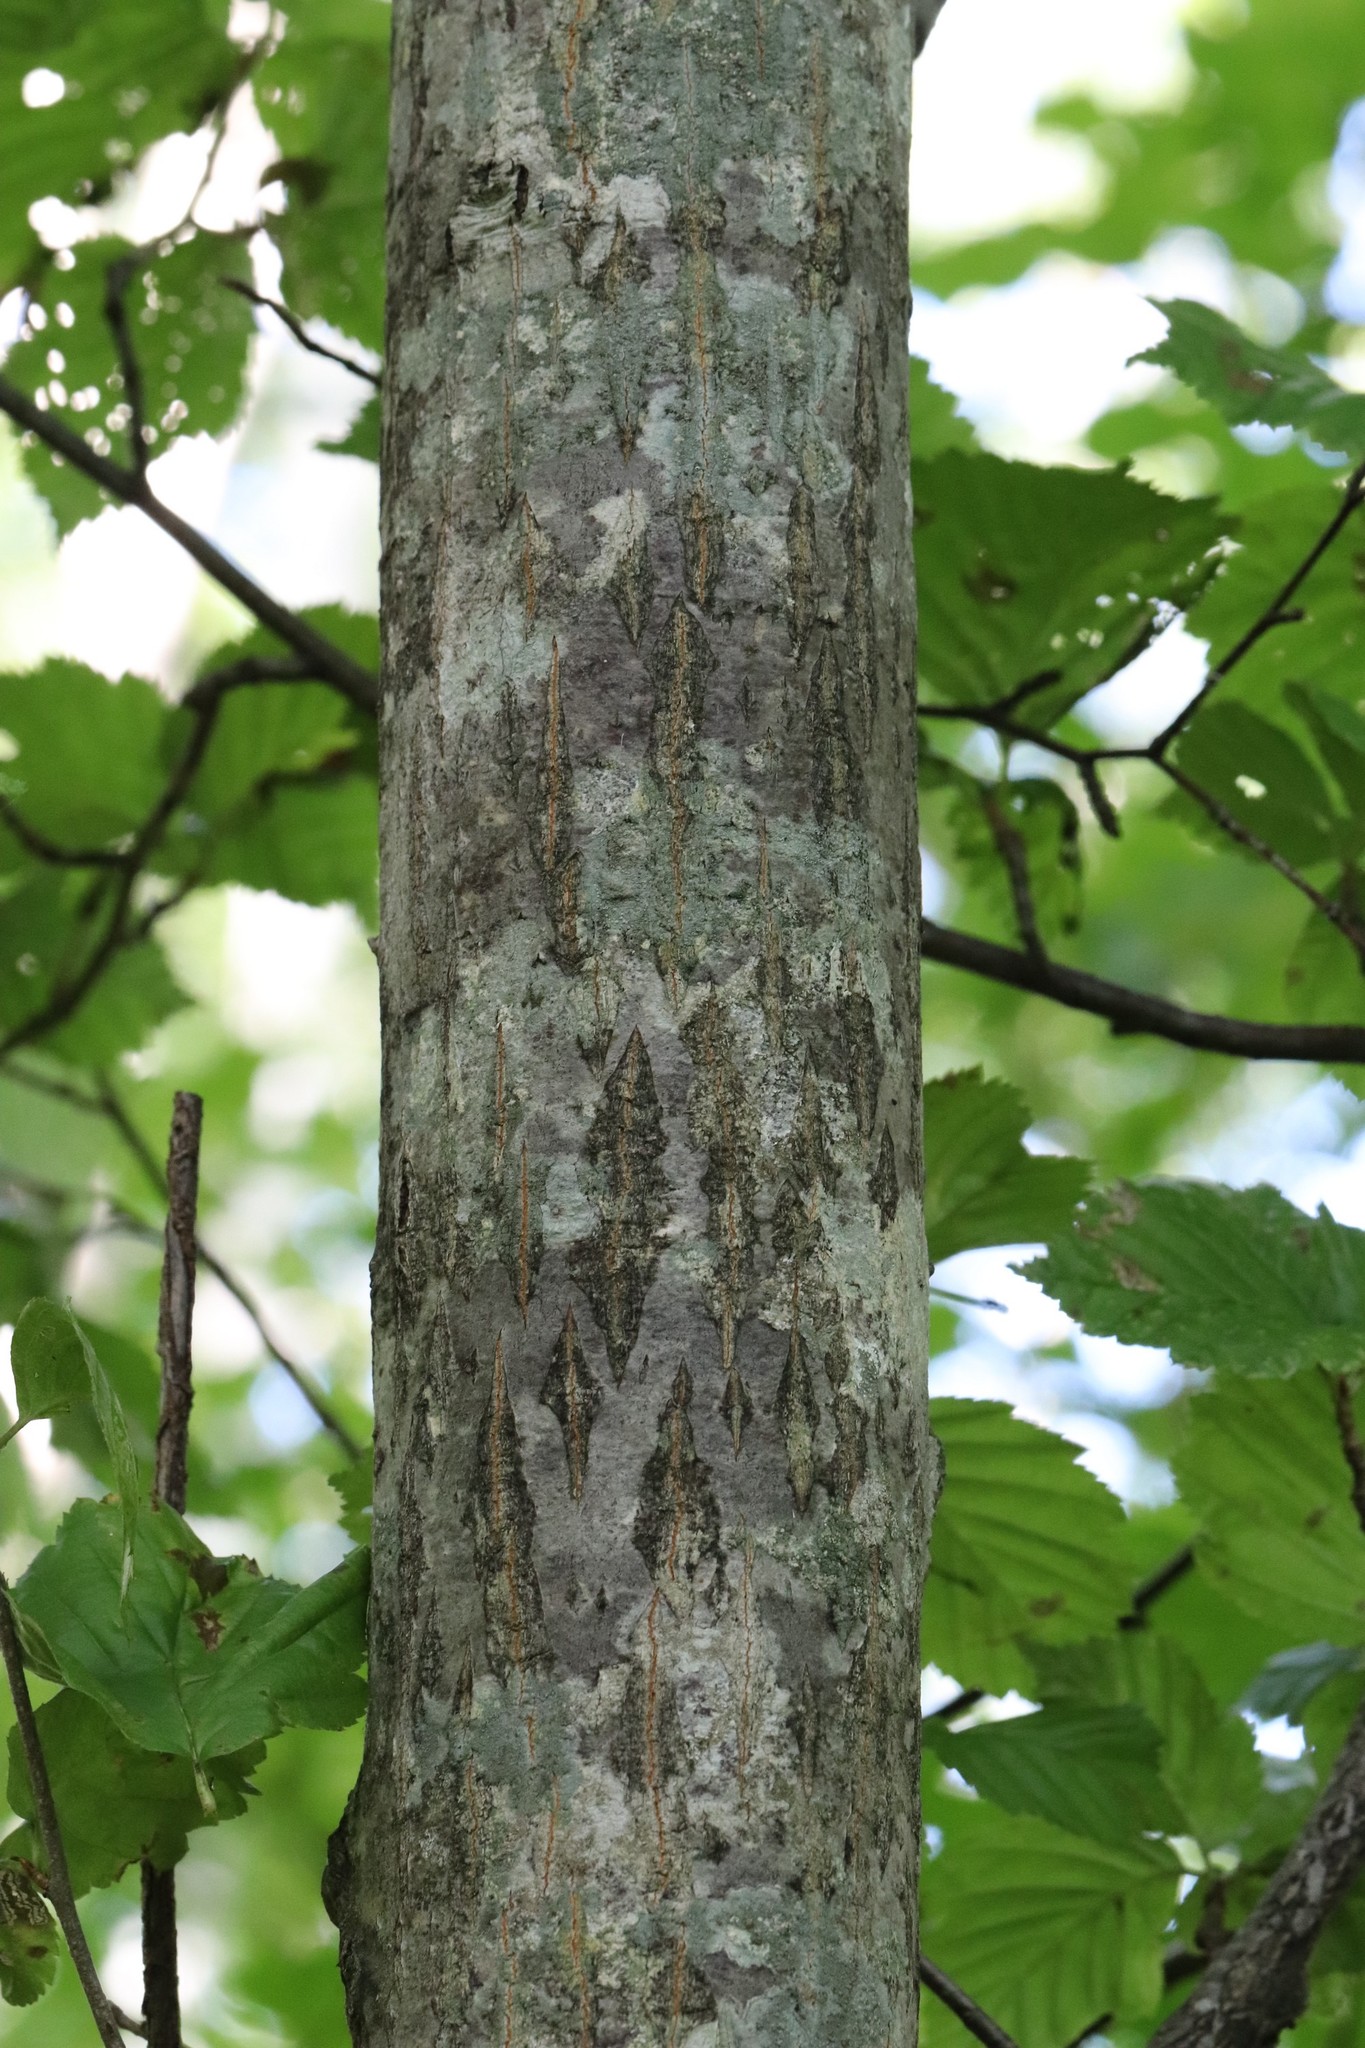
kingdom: Plantae
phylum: Tracheophyta
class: Magnoliopsida
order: Rosales
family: Rosaceae
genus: Sorbus
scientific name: Sorbus alnifolia
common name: Mountain-ash
